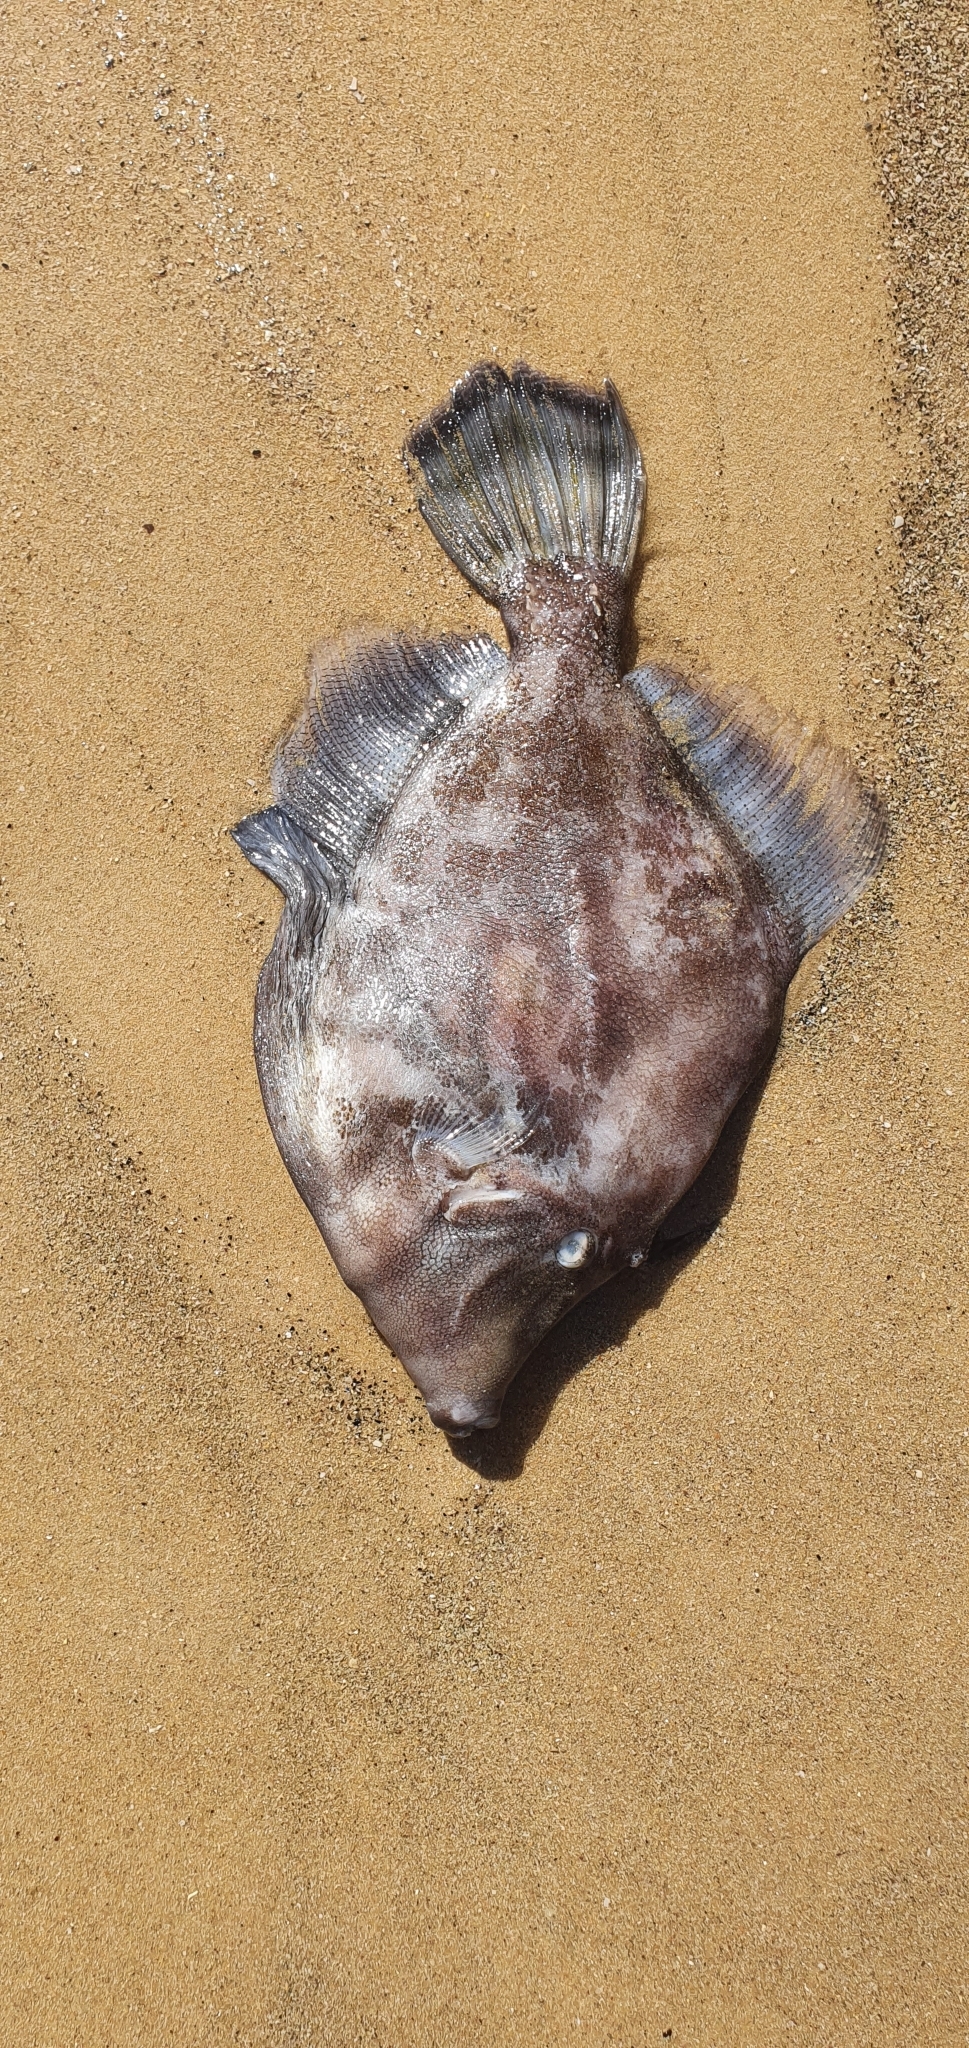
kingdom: Animalia
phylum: Chordata
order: Tetraodontiformes
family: Monacanthidae
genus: Monacanthus
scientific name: Monacanthus chinensis
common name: Centreboard leatherjacket
